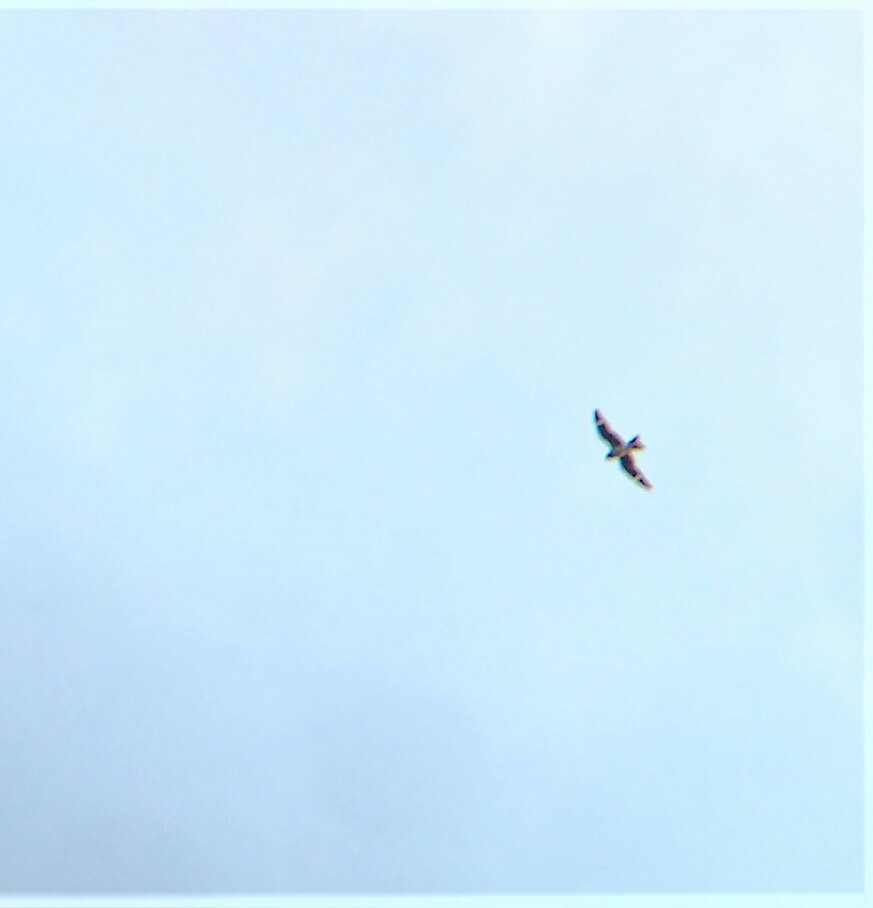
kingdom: Animalia
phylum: Chordata
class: Aves
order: Caprimulgiformes
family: Caprimulgidae
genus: Chordeiles
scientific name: Chordeiles minor
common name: Common nighthawk
